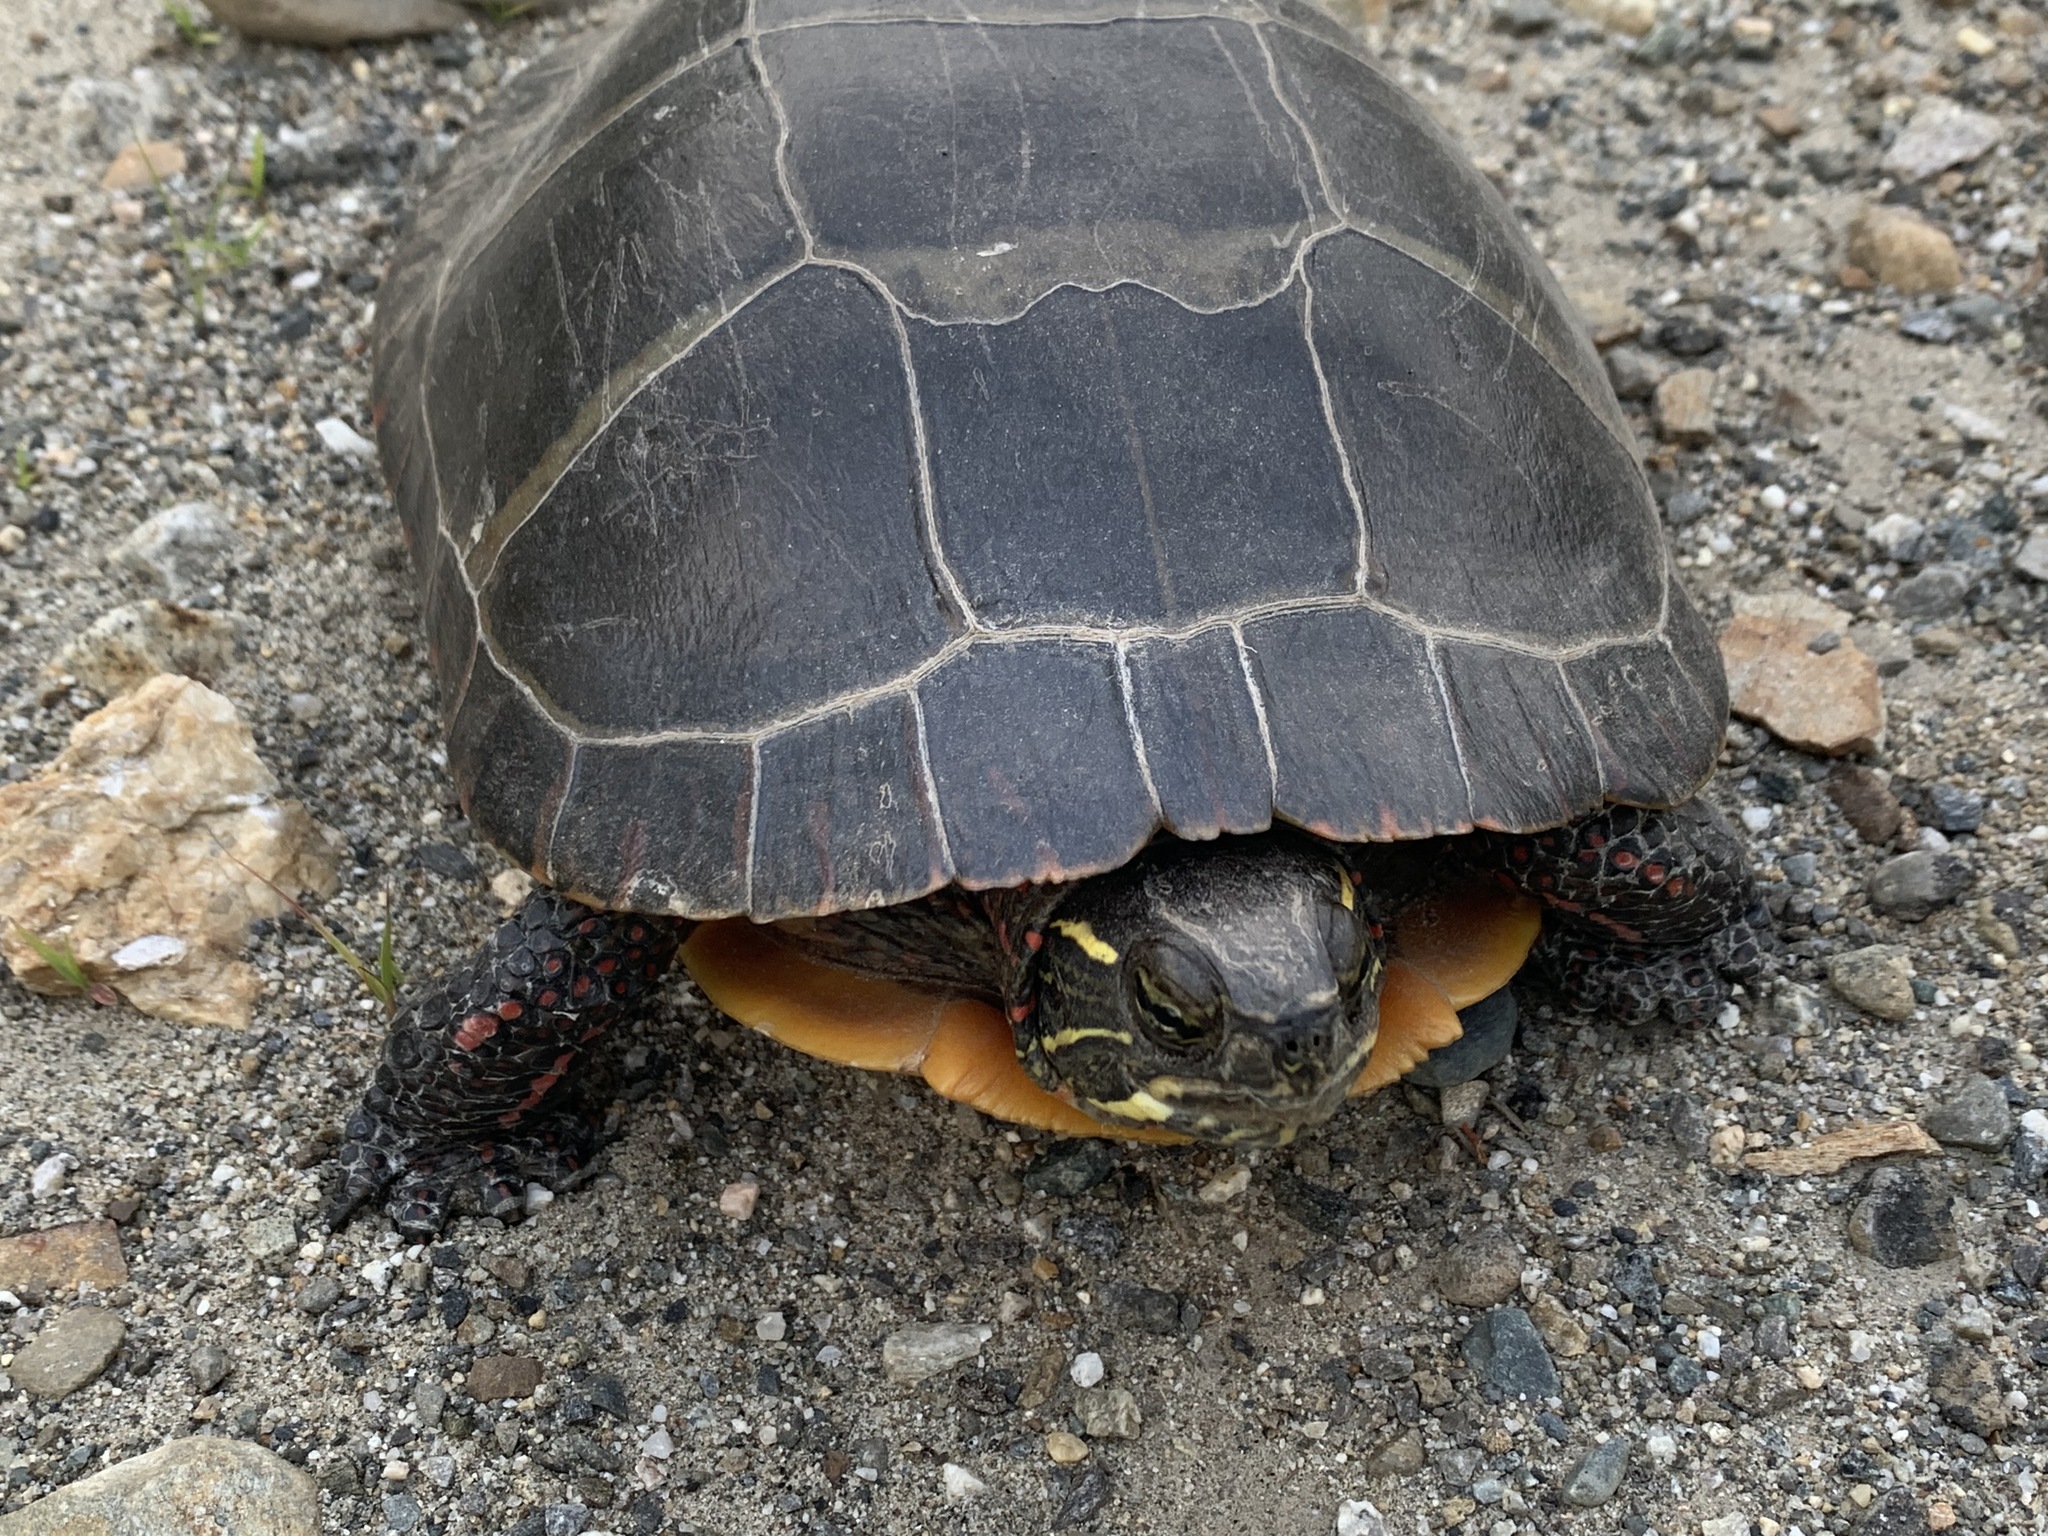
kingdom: Animalia
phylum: Chordata
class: Testudines
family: Emydidae
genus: Chrysemys
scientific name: Chrysemys picta
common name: Painted turtle
